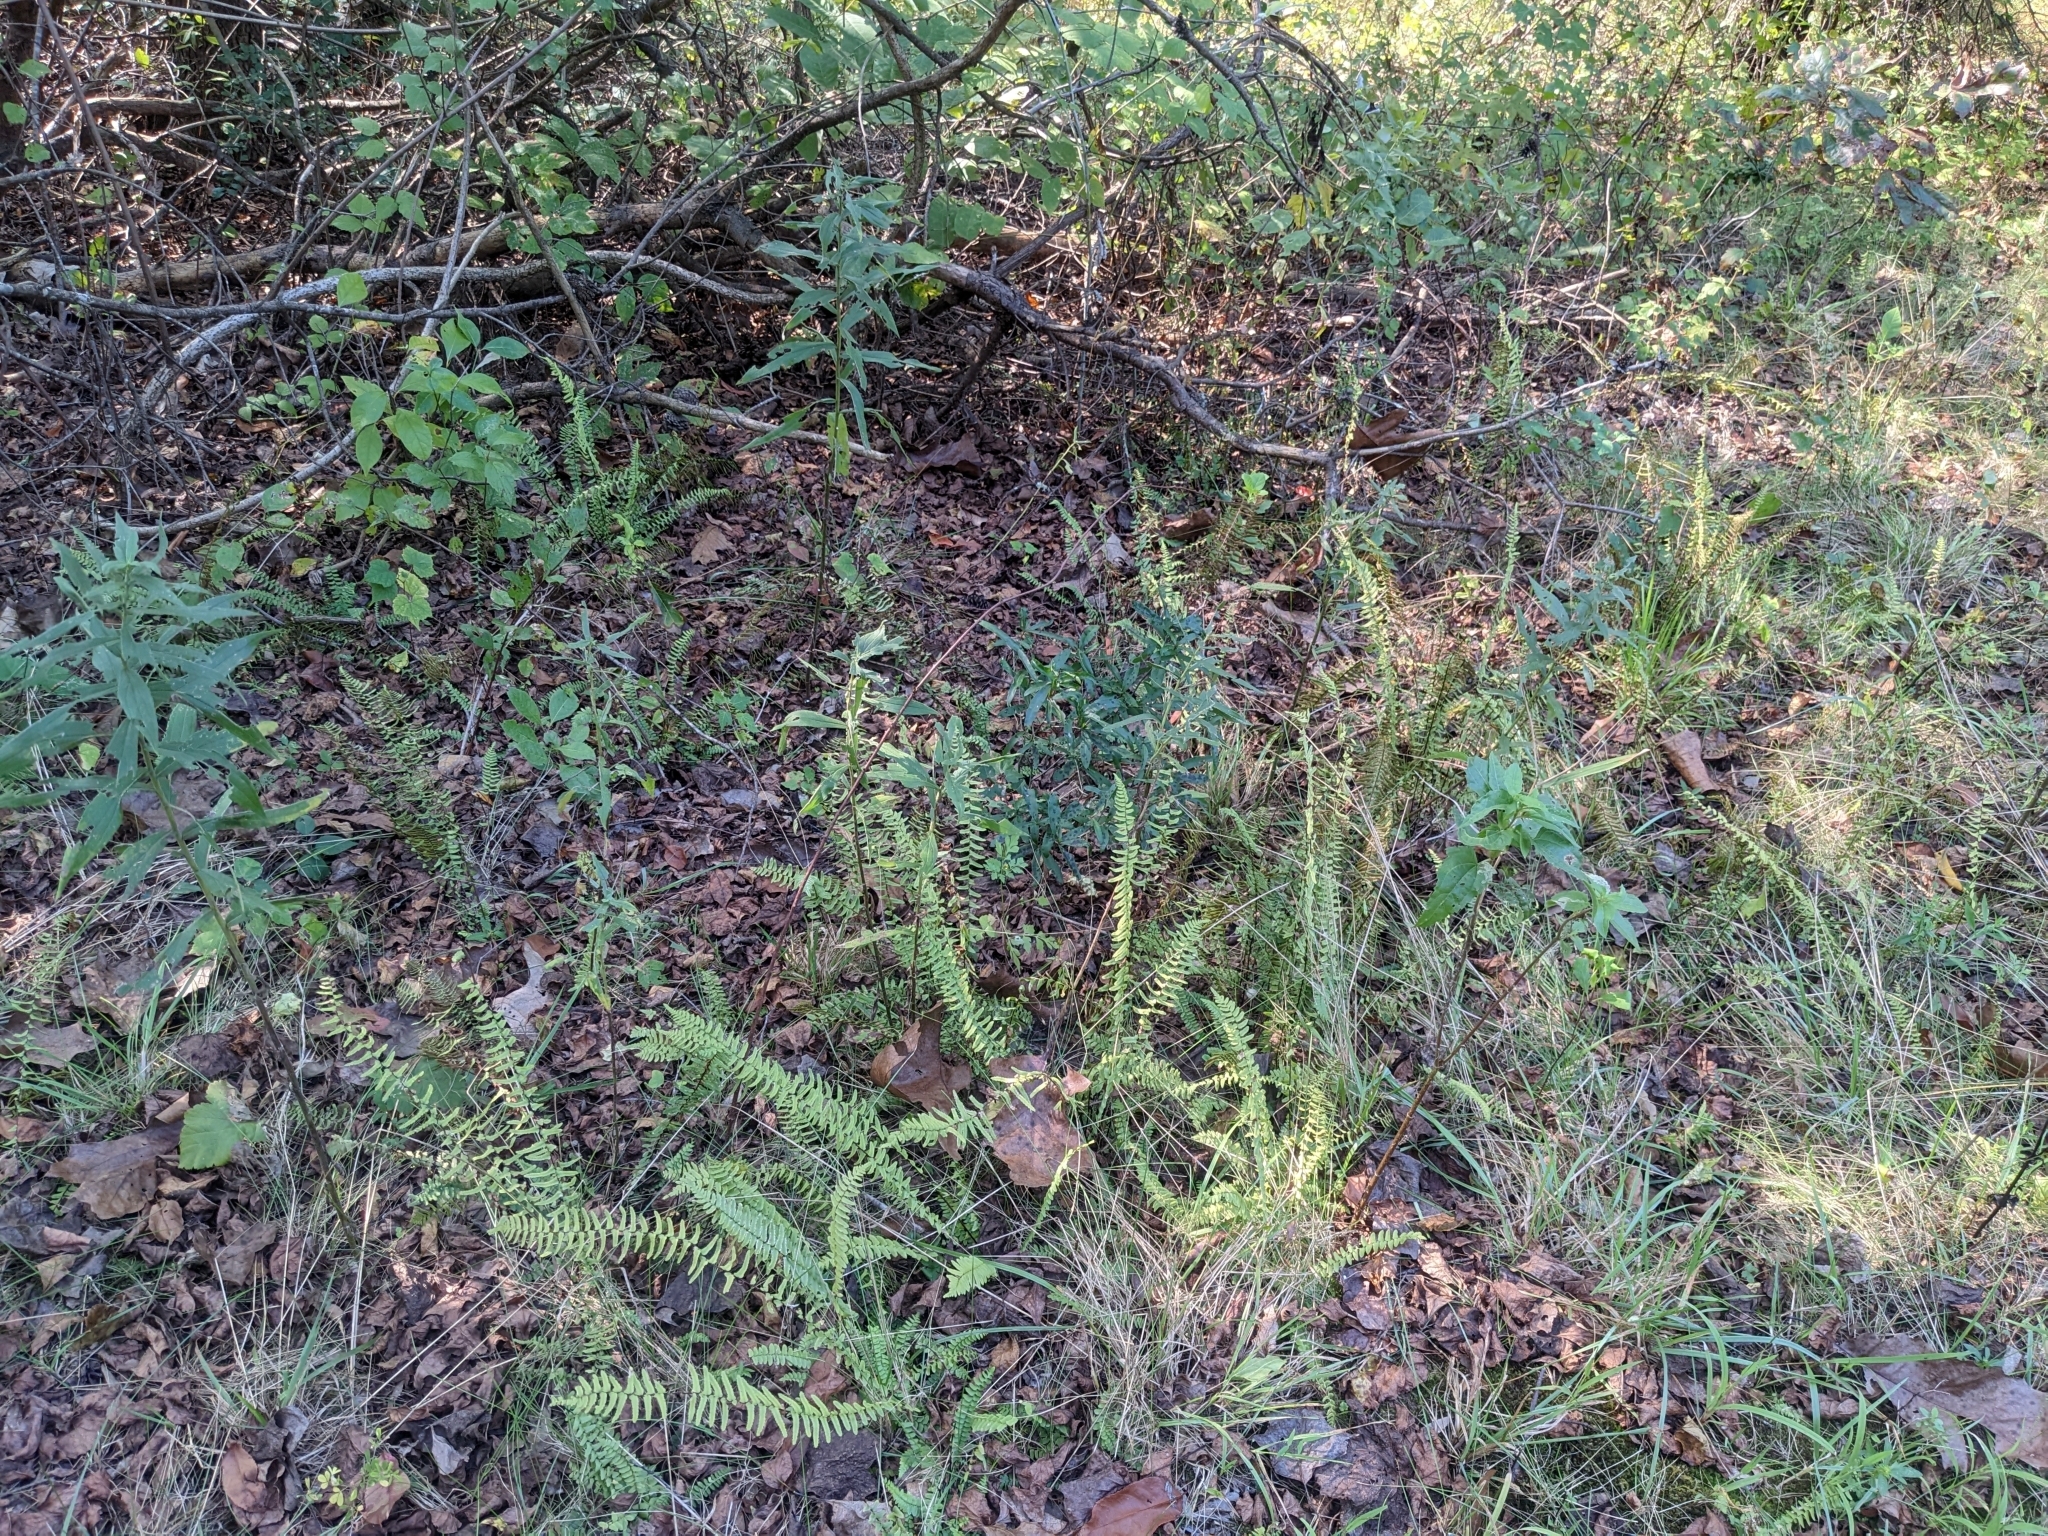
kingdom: Plantae
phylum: Tracheophyta
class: Polypodiopsida
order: Polypodiales
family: Aspleniaceae
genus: Asplenium
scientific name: Asplenium platyneuron
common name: Ebony spleenwort
